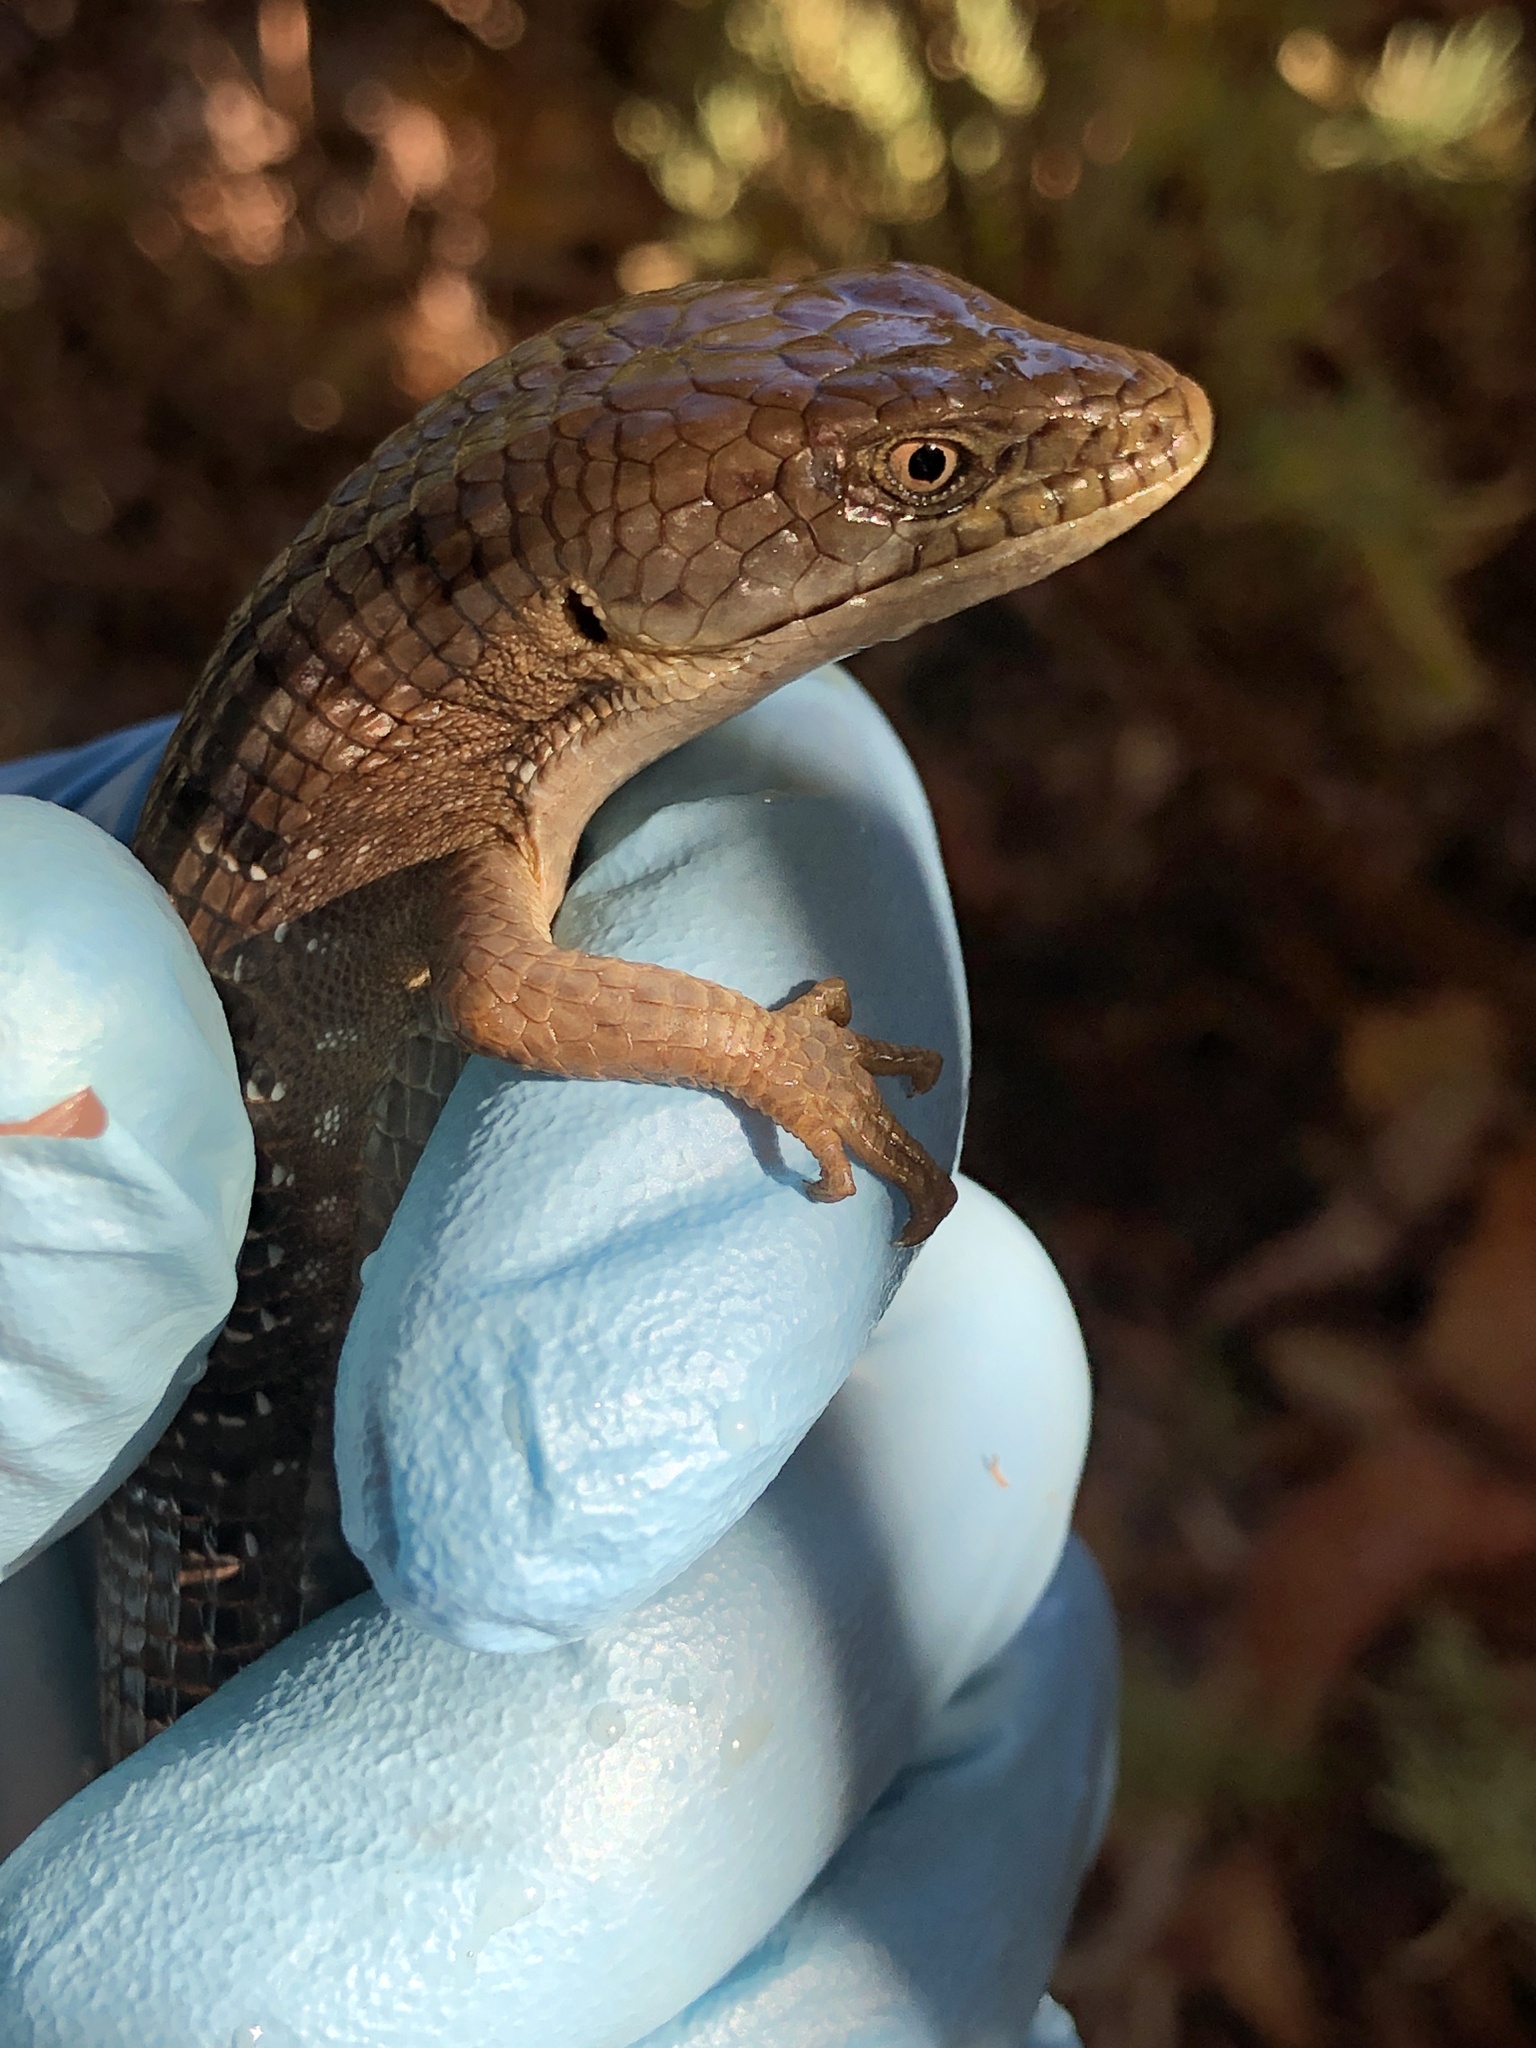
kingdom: Animalia
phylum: Chordata
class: Squamata
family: Anguidae
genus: Elgaria
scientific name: Elgaria multicarinata
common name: Southern alligator lizard
